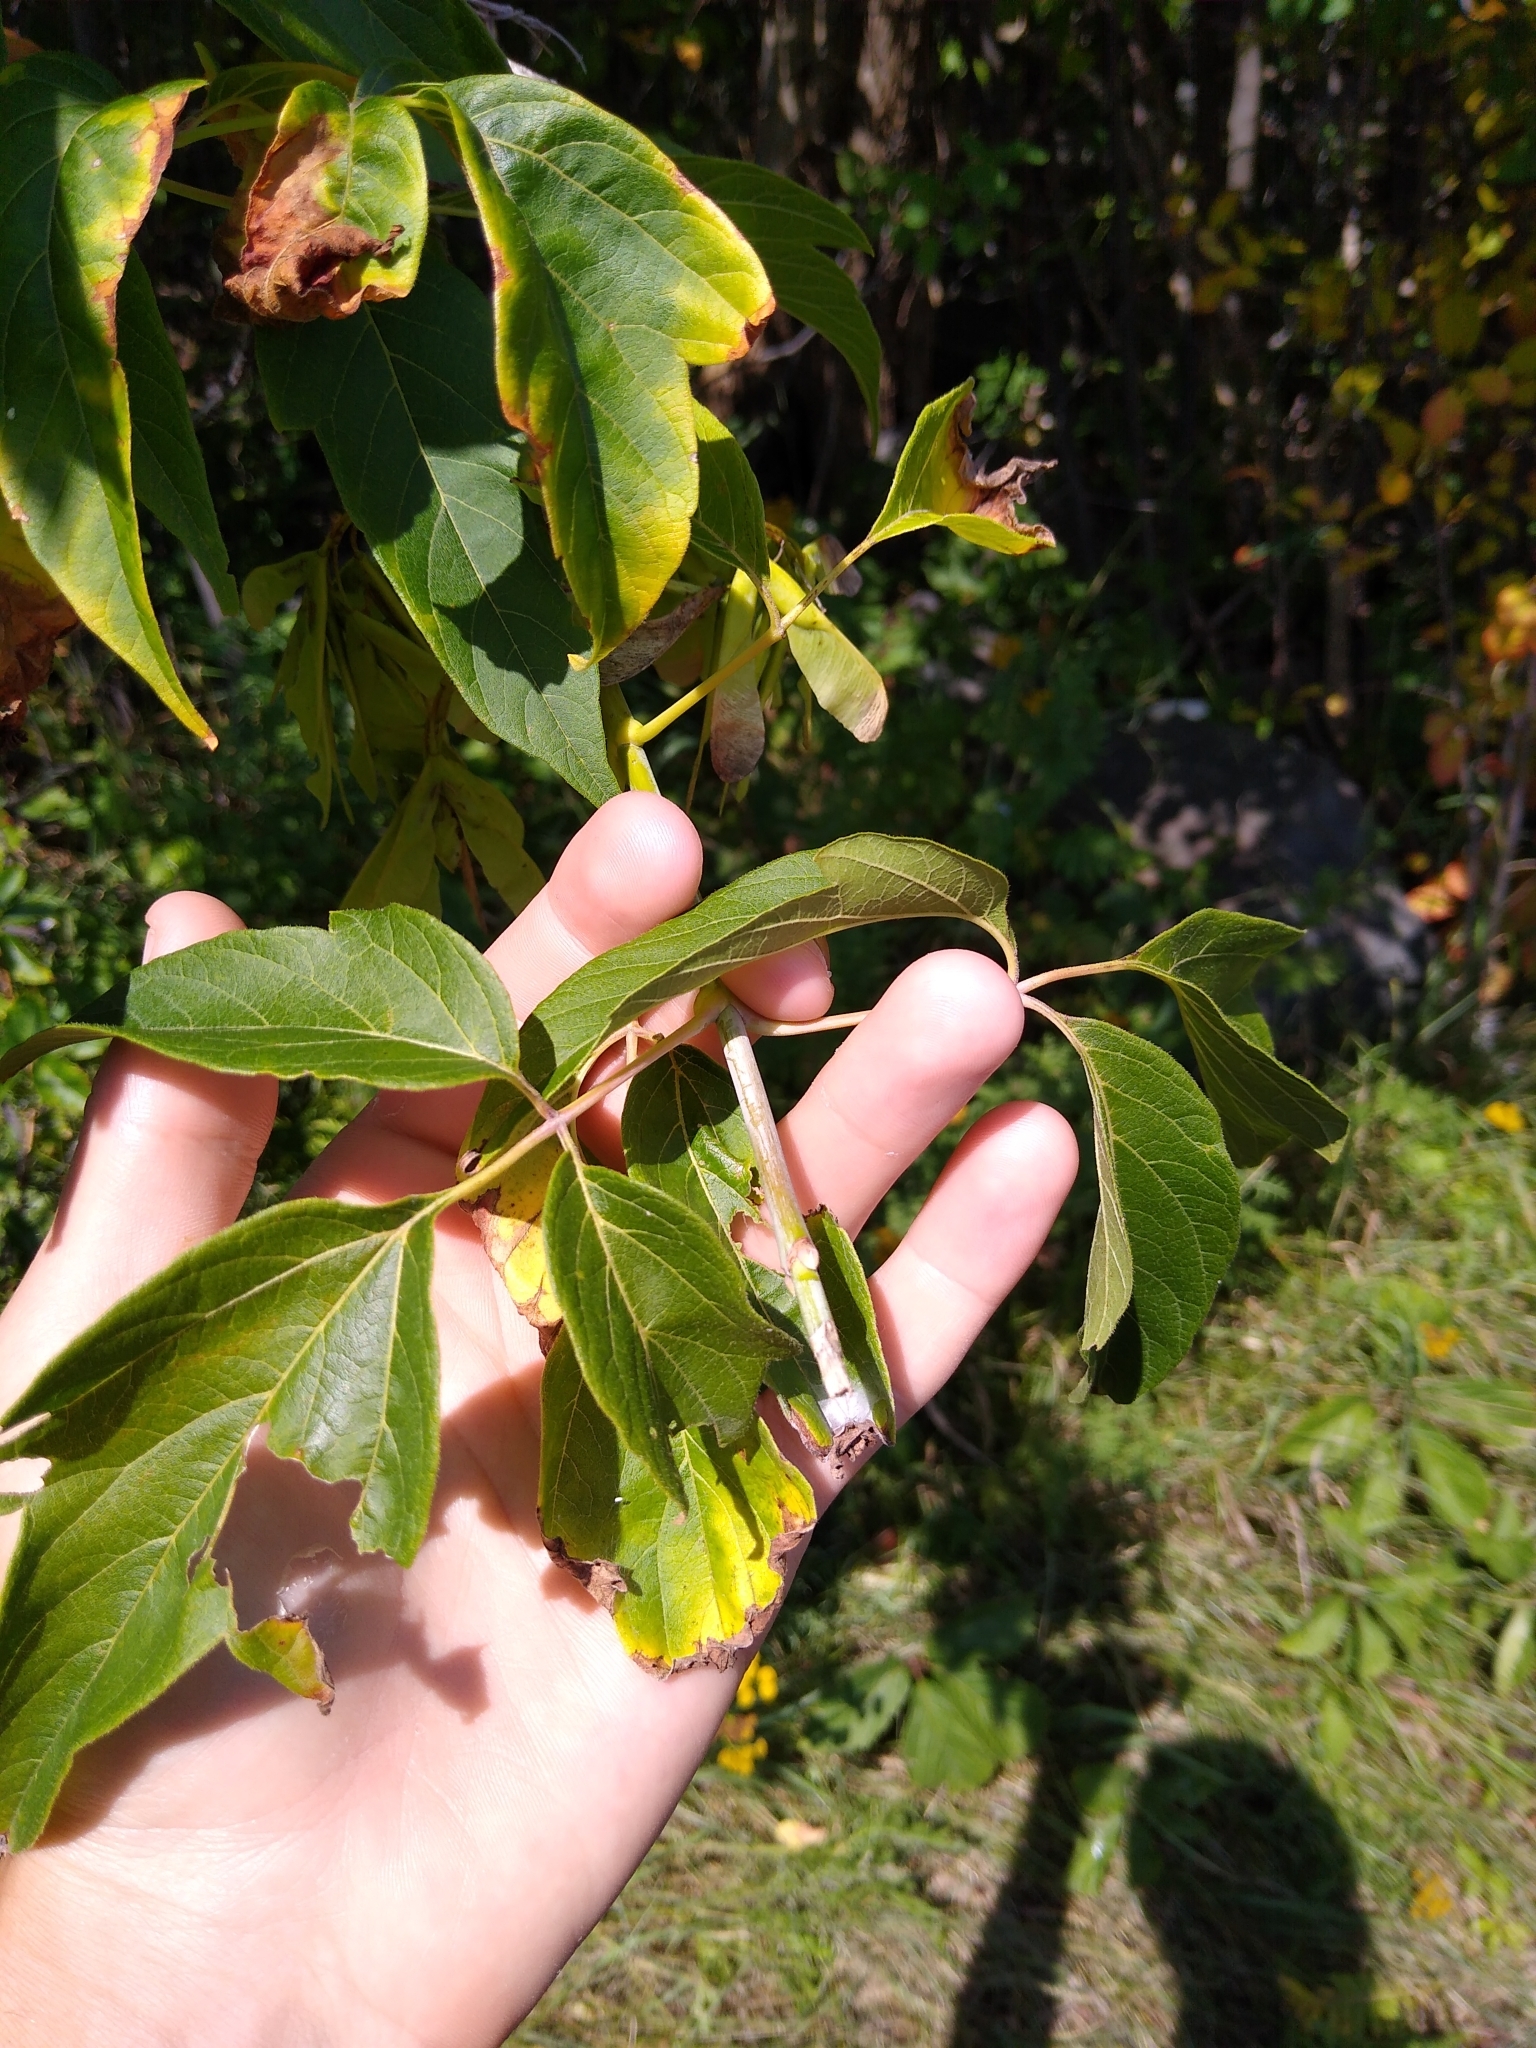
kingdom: Plantae
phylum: Tracheophyta
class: Magnoliopsida
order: Sapindales
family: Sapindaceae
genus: Acer
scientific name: Acer negundo
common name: Ashleaf maple
